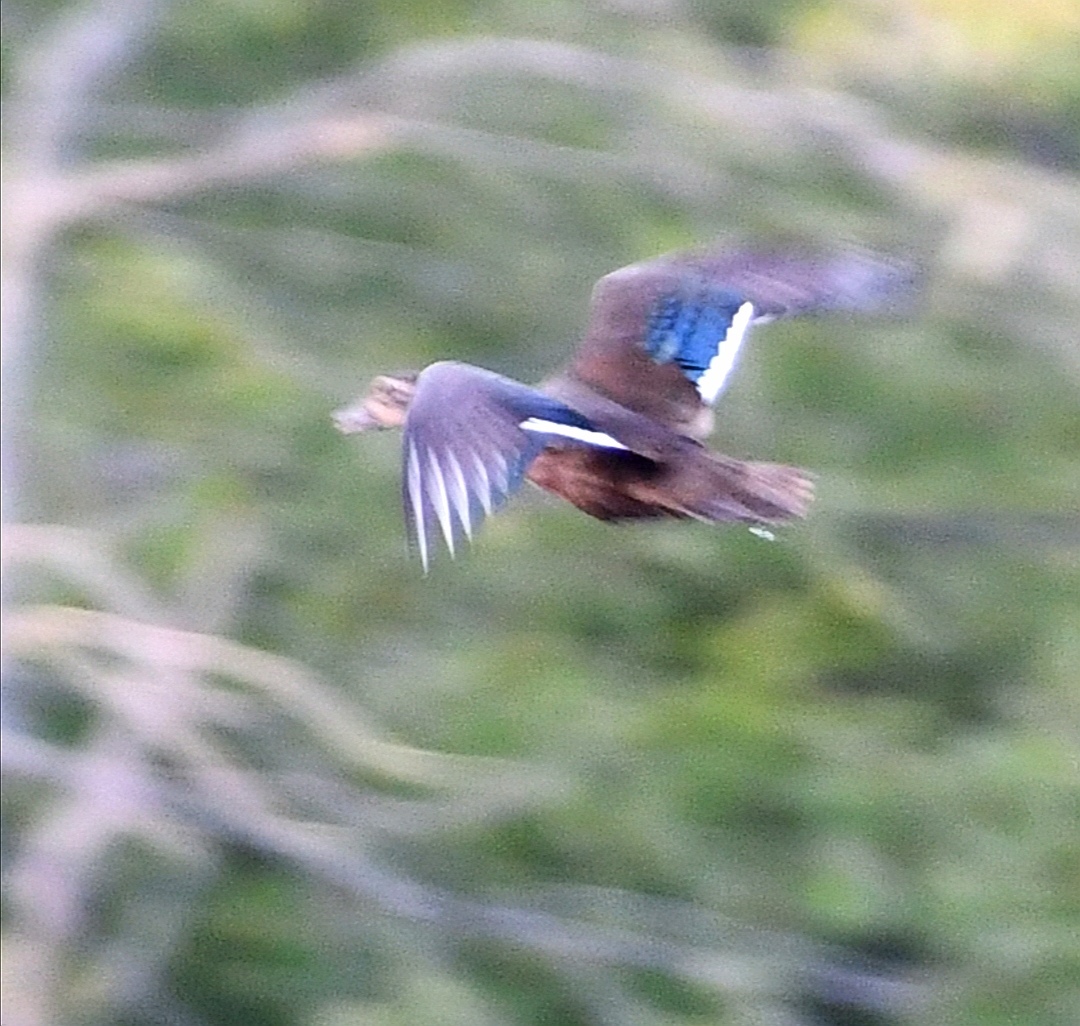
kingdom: Animalia
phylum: Chordata
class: Aves
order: Anseriformes
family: Anatidae
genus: Aix
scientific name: Aix sponsa
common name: Wood duck
